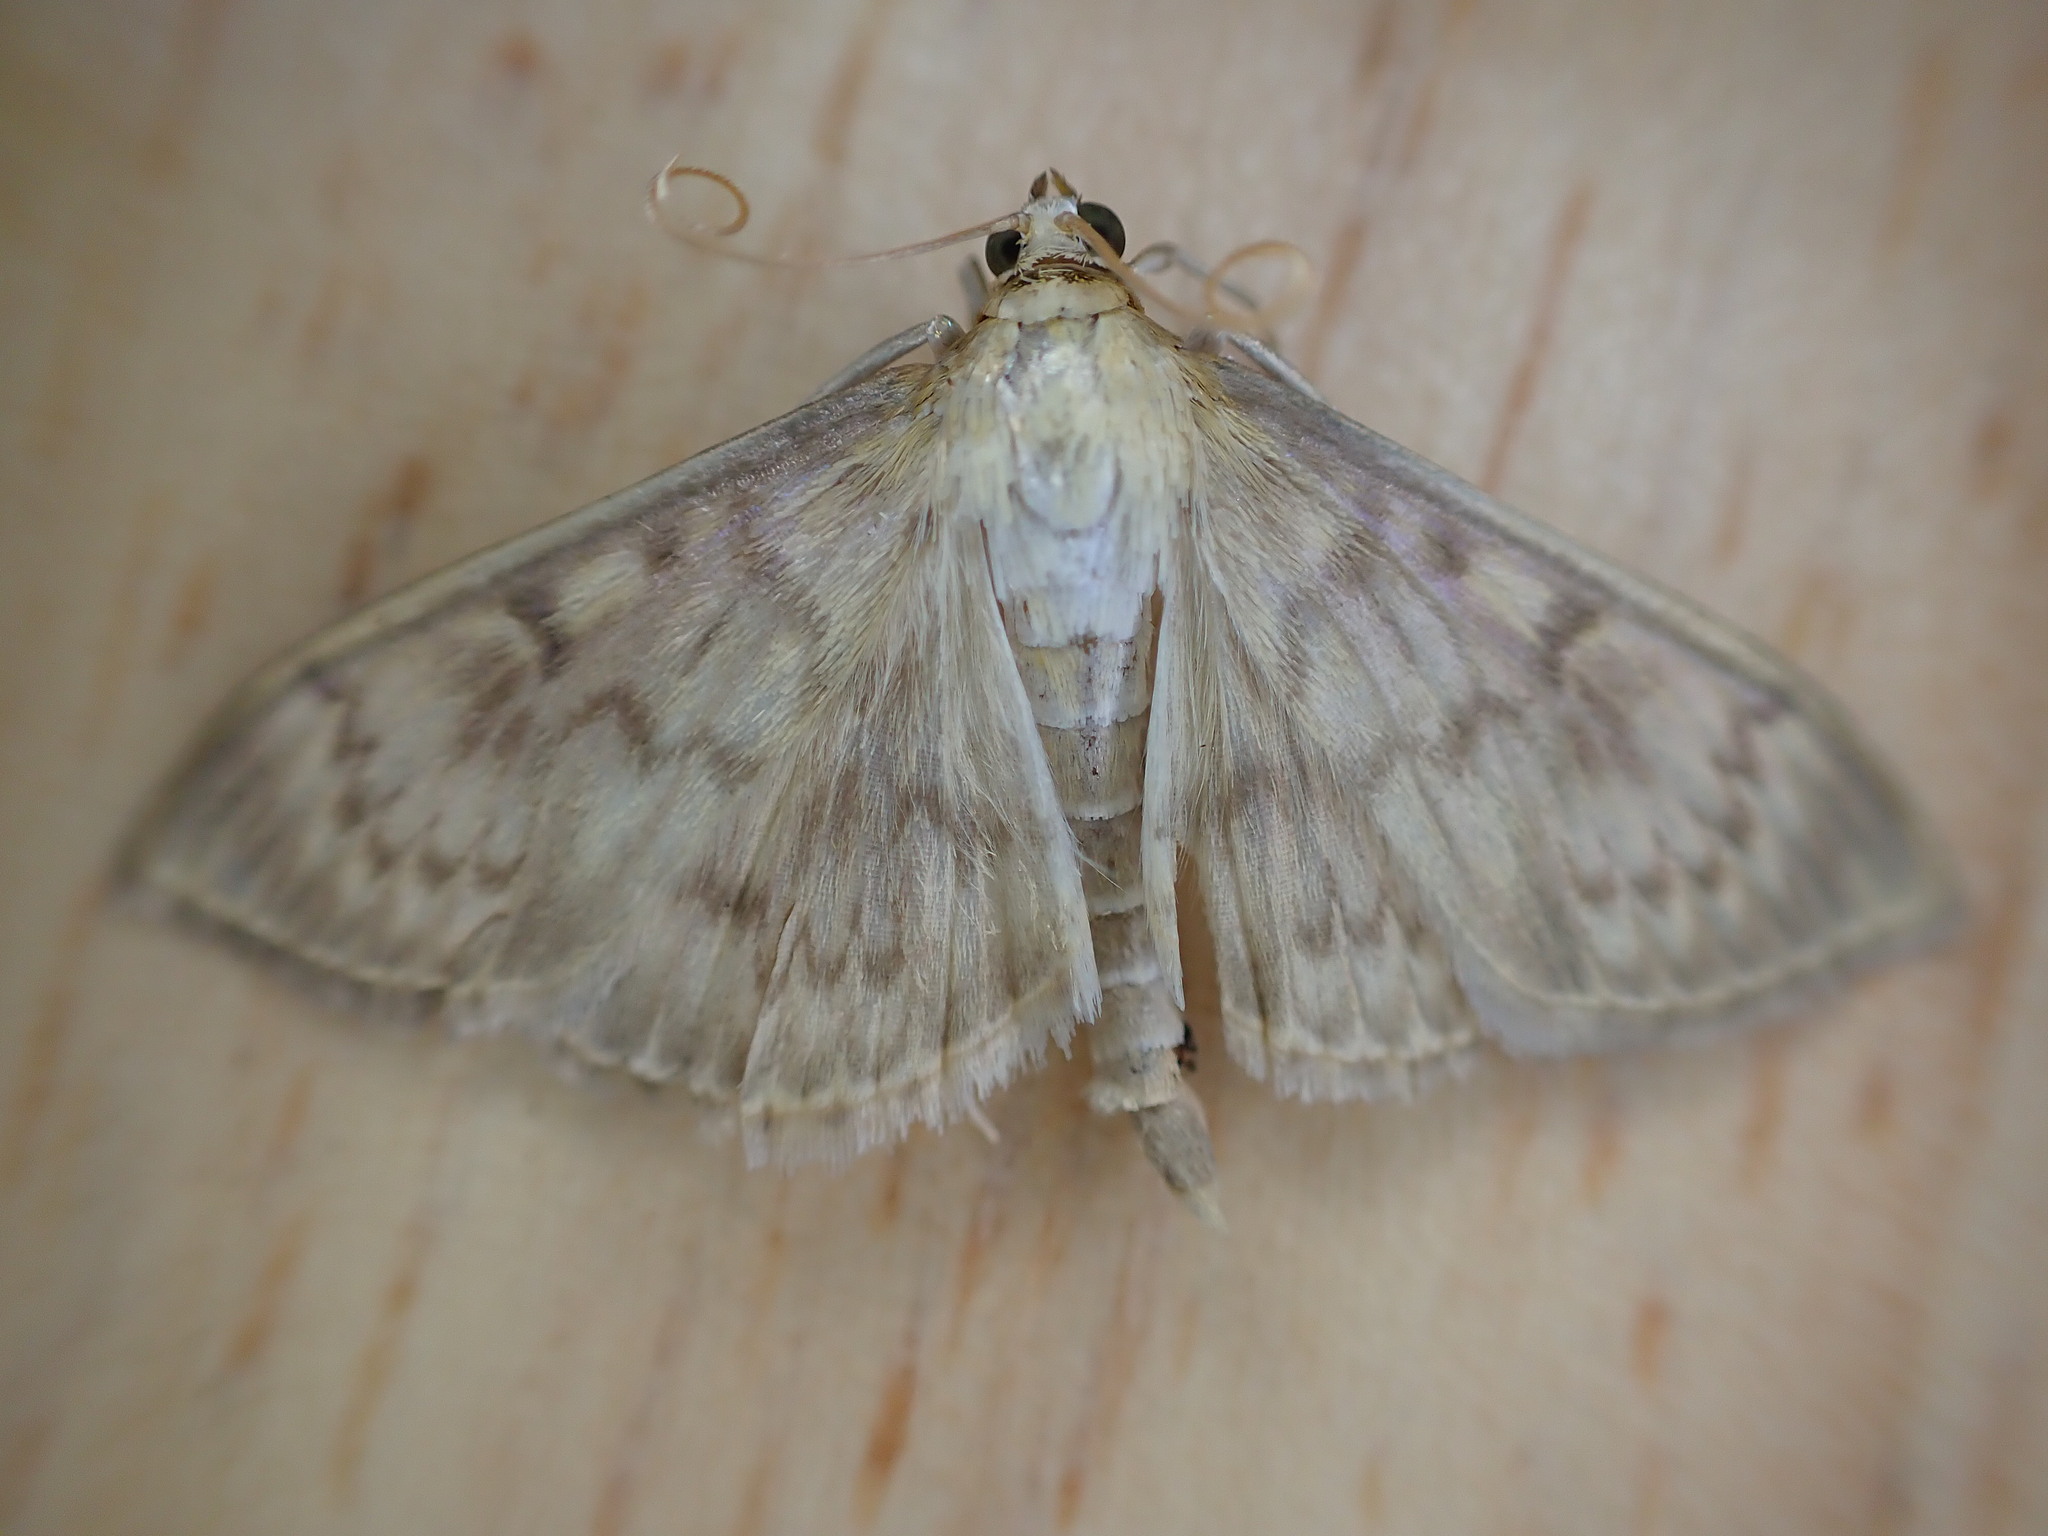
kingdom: Animalia
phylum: Arthropoda
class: Insecta
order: Lepidoptera
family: Crambidae
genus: Patania
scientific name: Patania ruralis
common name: Mother of pearl
